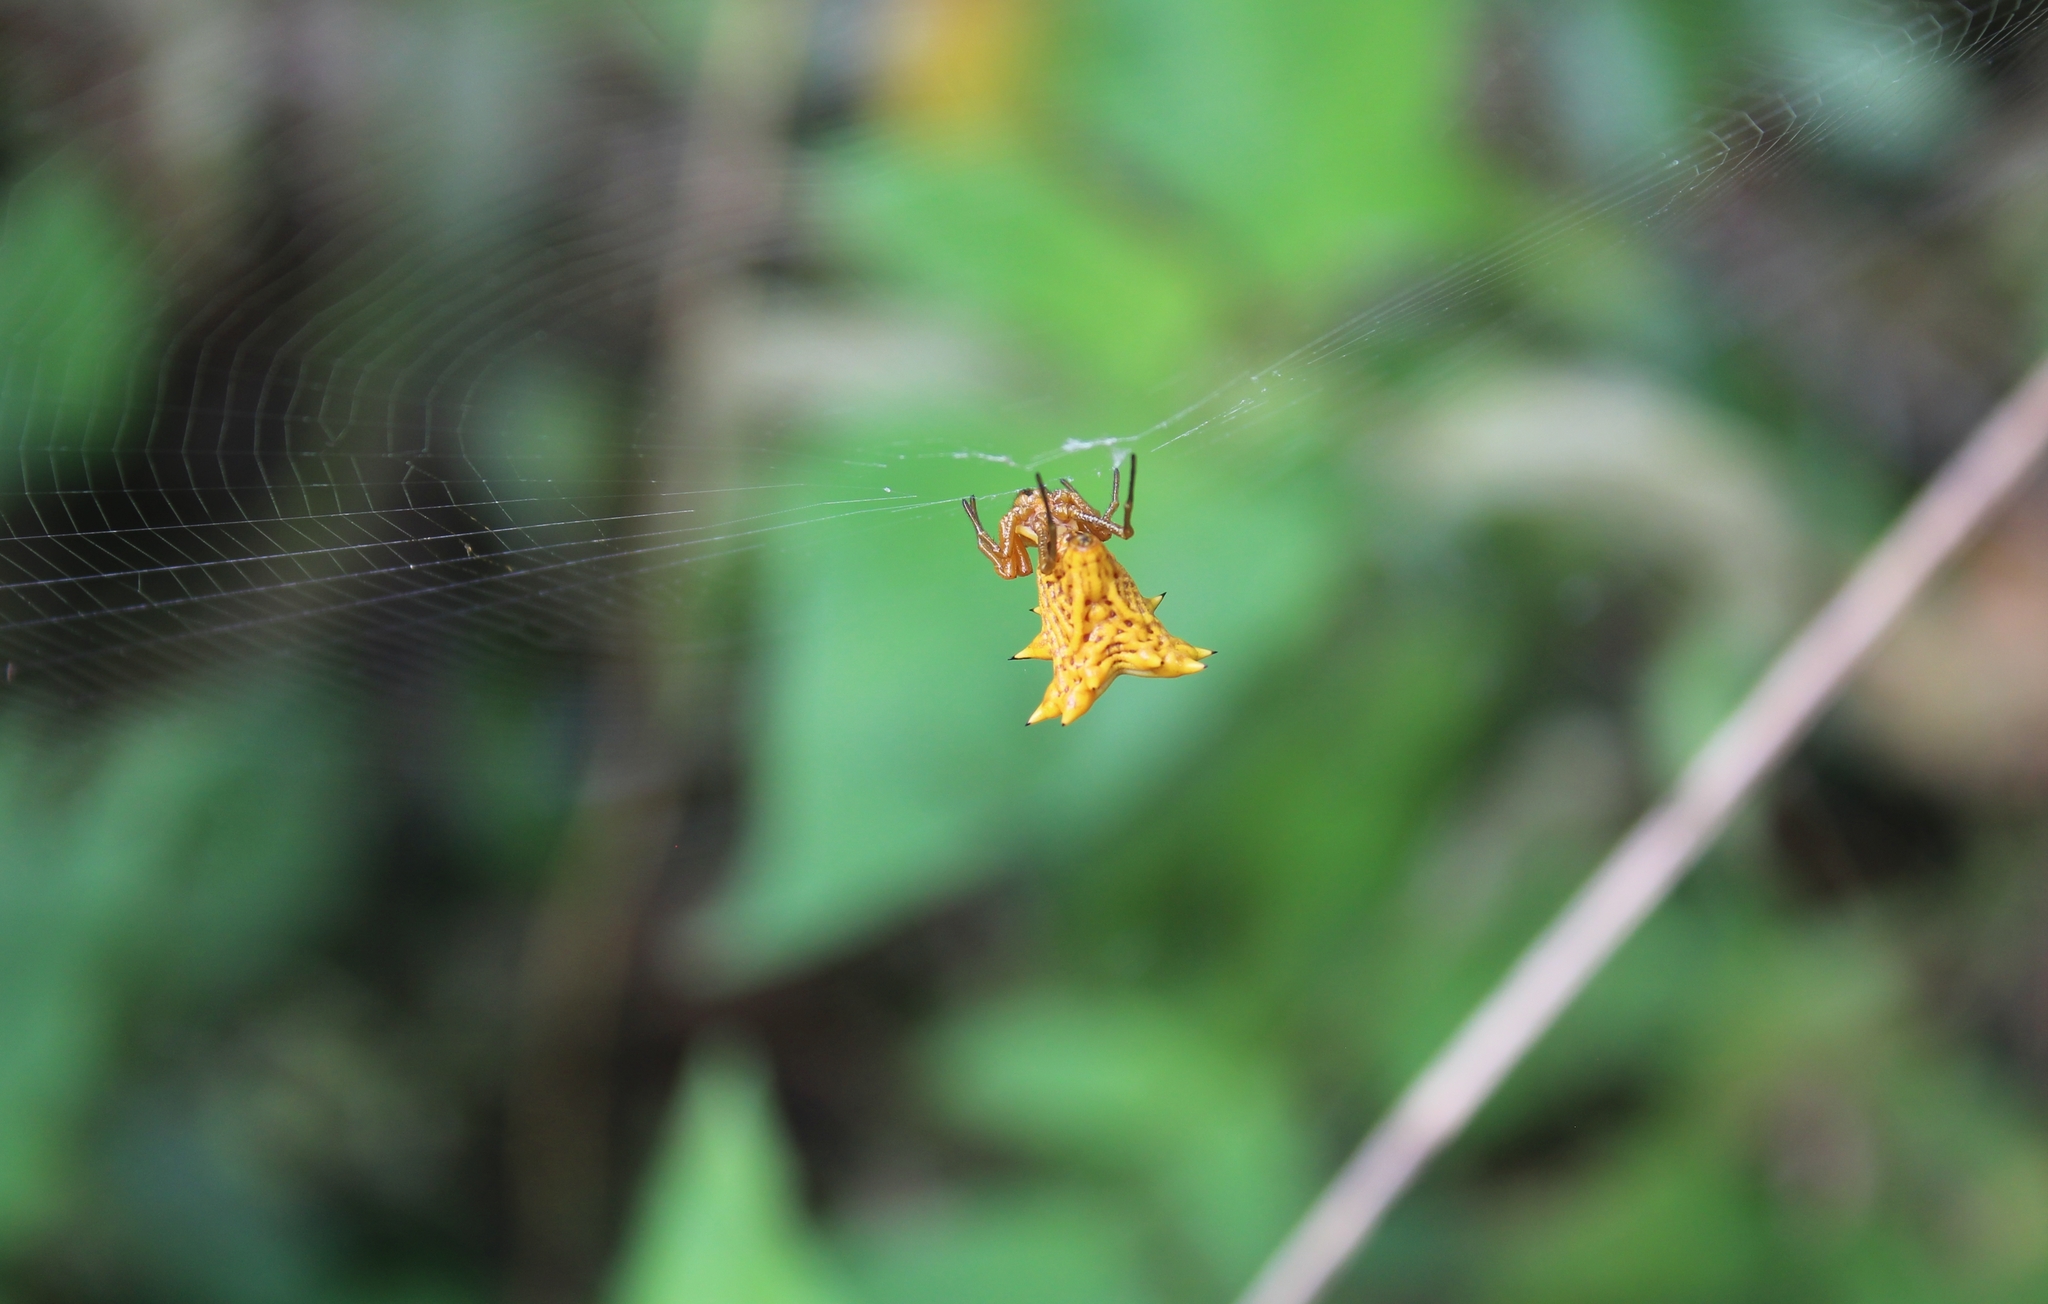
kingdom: Animalia
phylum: Arthropoda
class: Arachnida
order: Araneae
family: Araneidae
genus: Micrathena
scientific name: Micrathena gracilis
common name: Orb weavers
